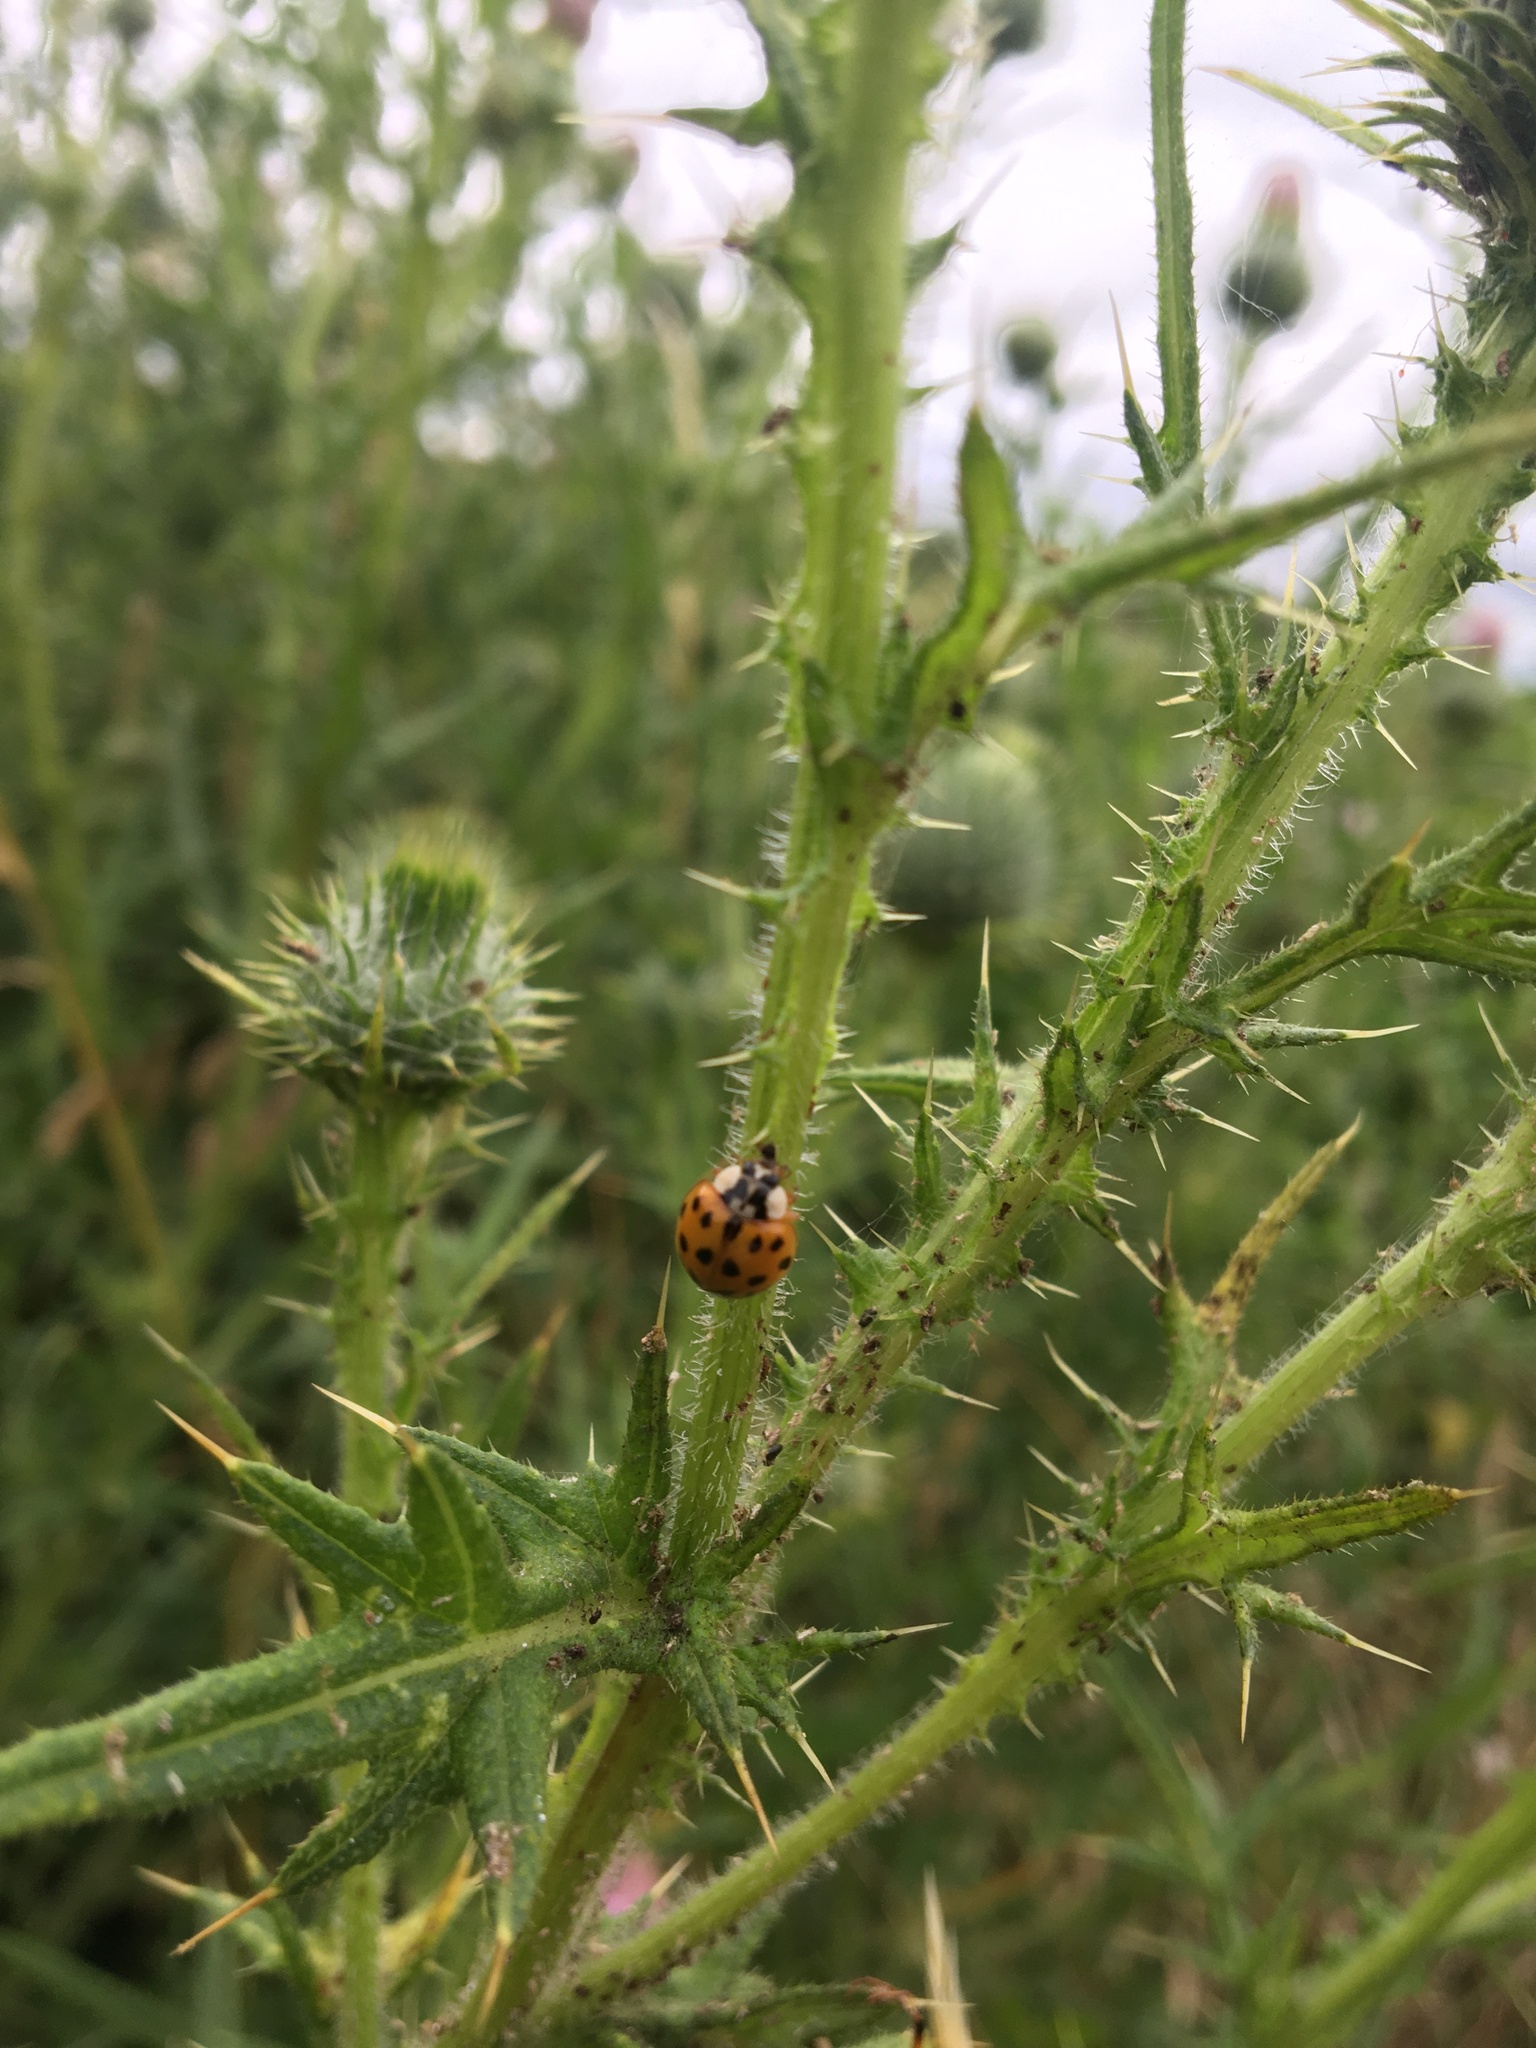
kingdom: Animalia
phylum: Arthropoda
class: Insecta
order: Coleoptera
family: Coccinellidae
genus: Harmonia
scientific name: Harmonia axyridis
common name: Harlequin ladybird
